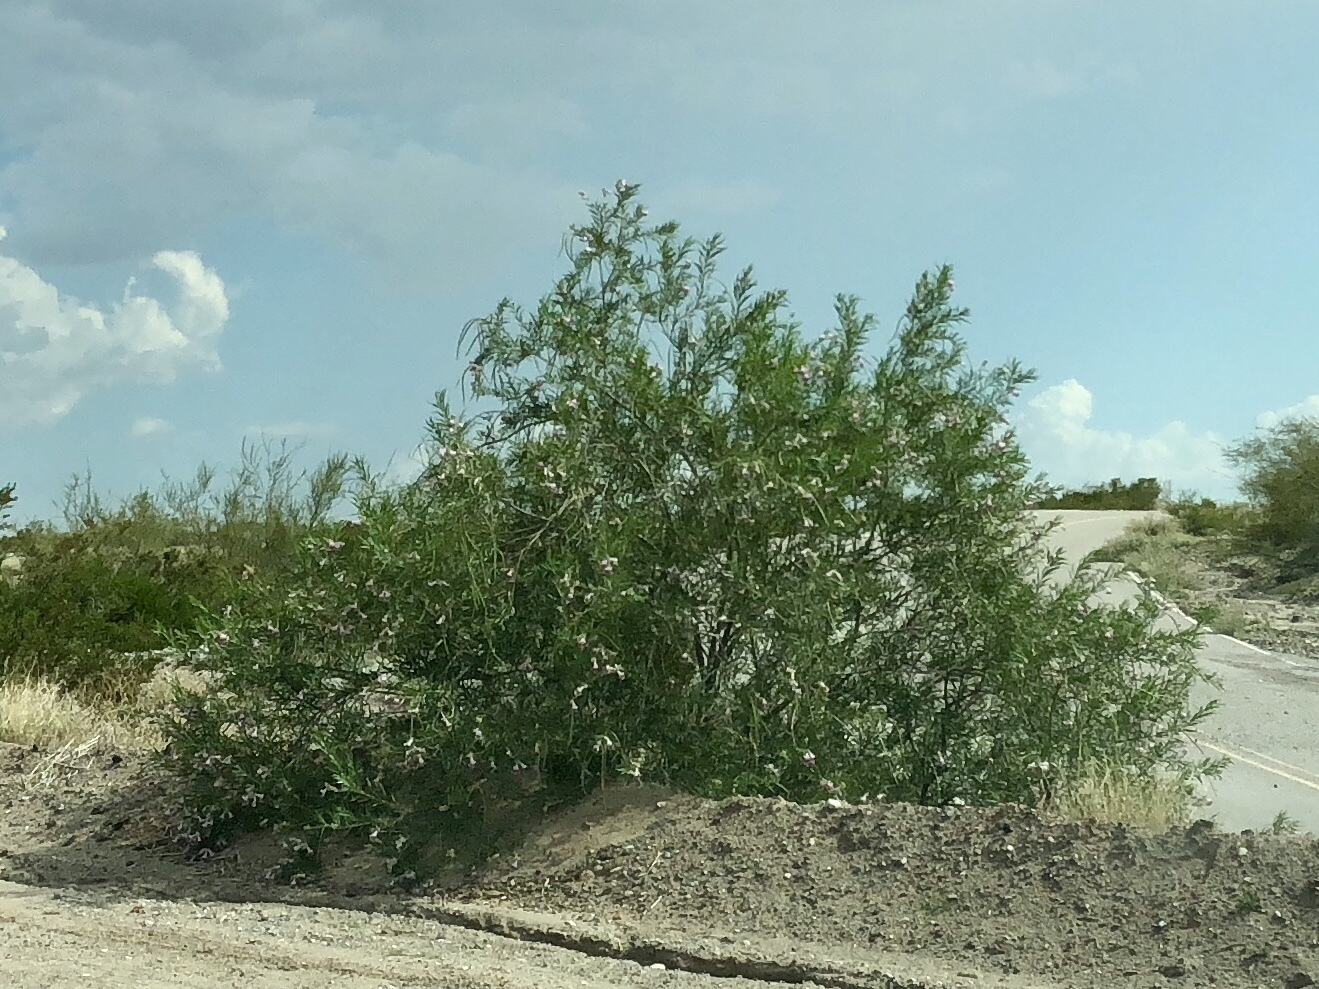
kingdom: Plantae
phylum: Tracheophyta
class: Magnoliopsida
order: Lamiales
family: Bignoniaceae
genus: Chilopsis
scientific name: Chilopsis linearis
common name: Desert-willow
